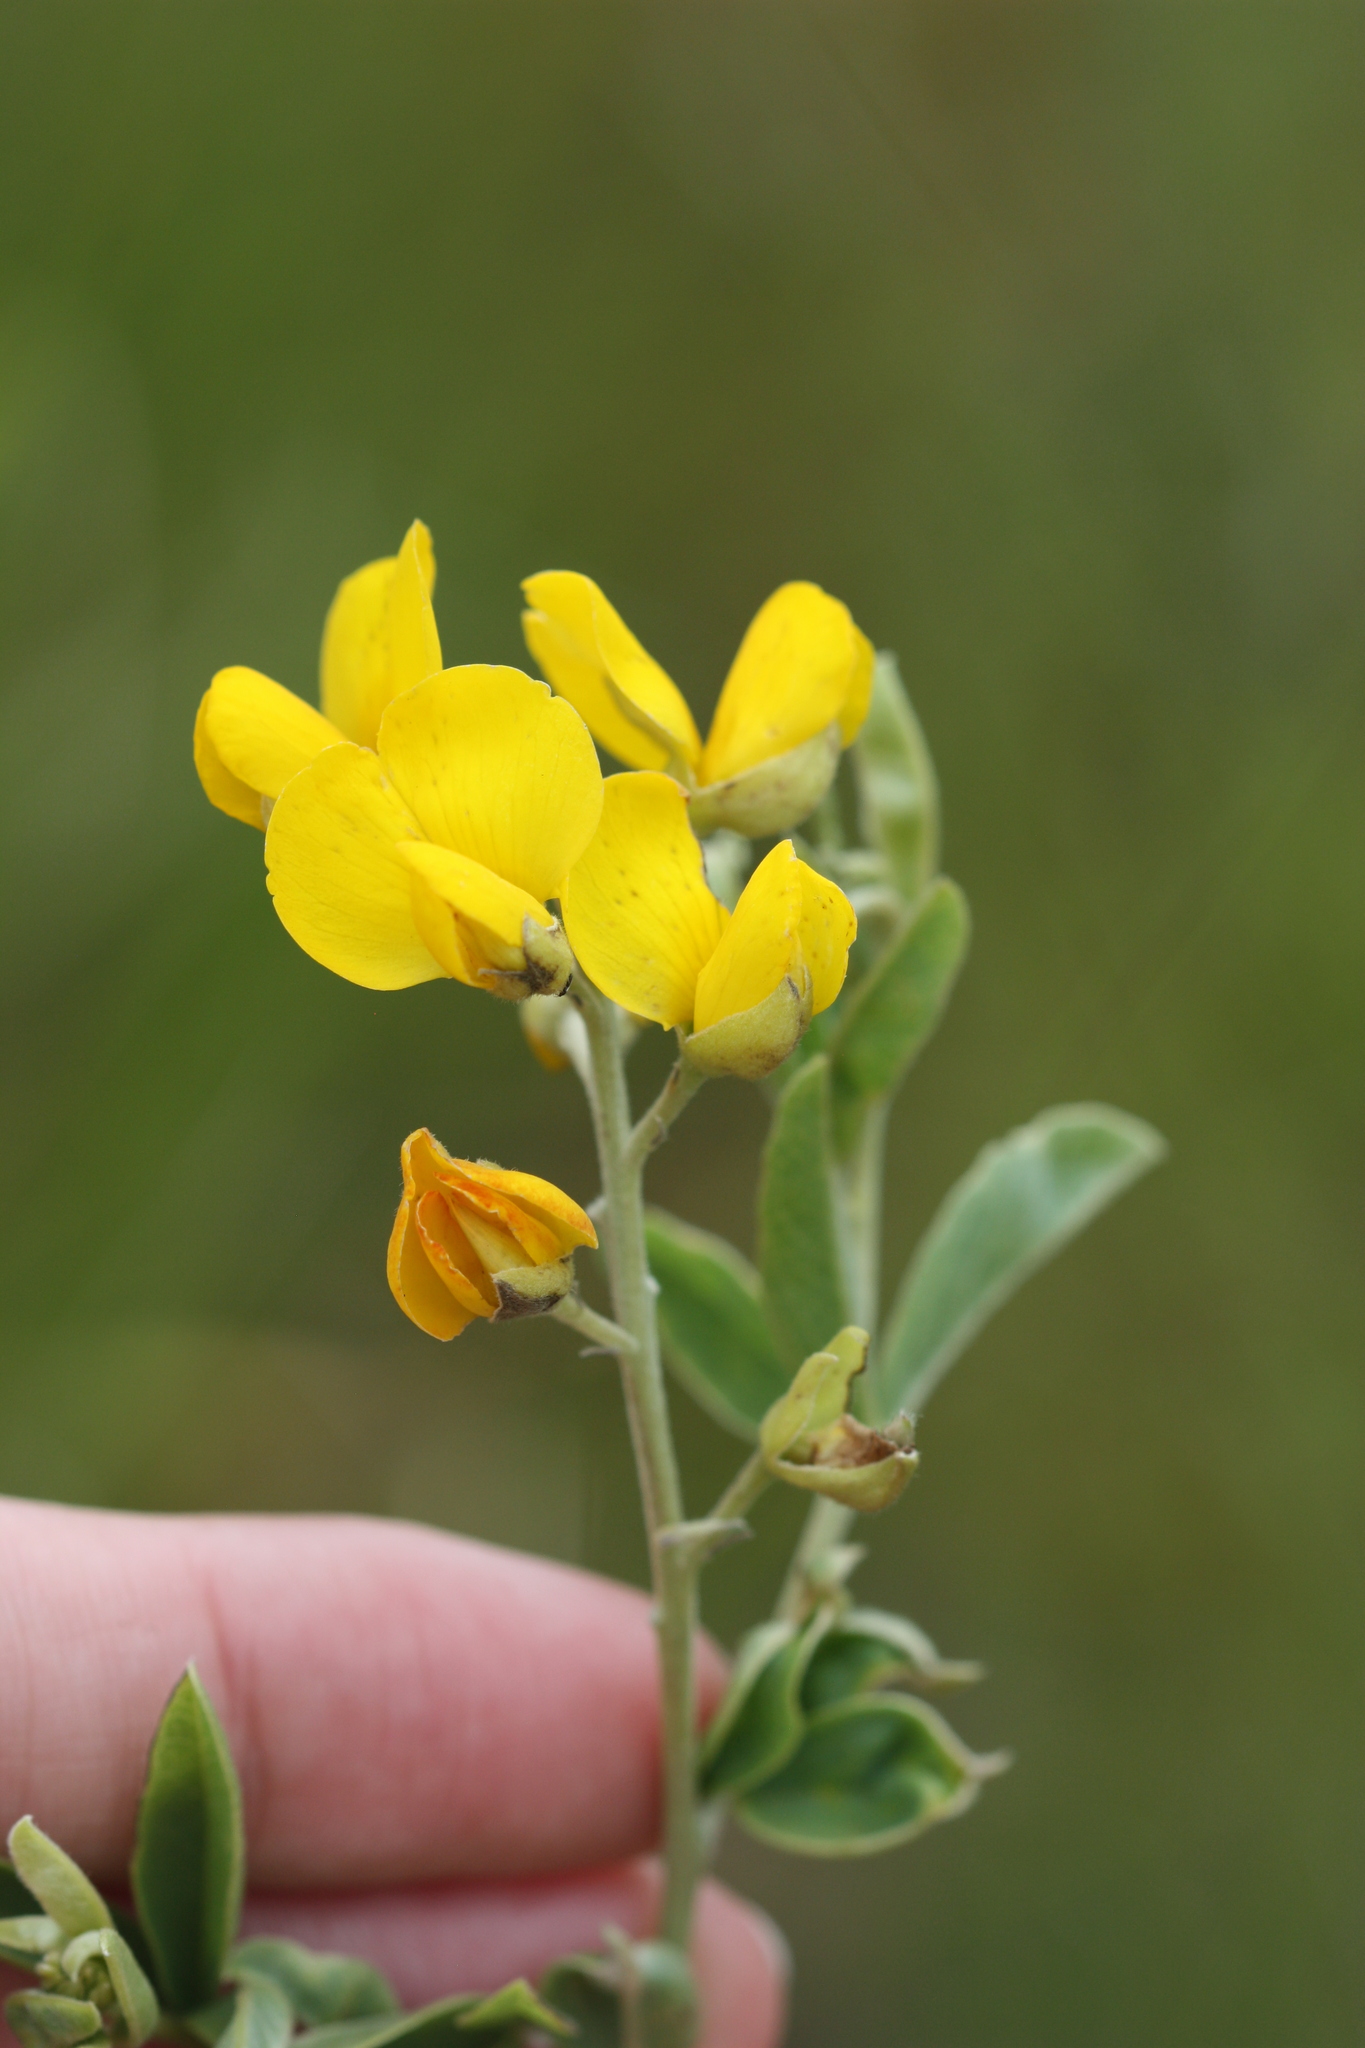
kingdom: Plantae
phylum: Tracheophyta
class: Magnoliopsida
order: Fabales
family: Fabaceae
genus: Argyrolobium
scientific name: Argyrolobium transvaalense
